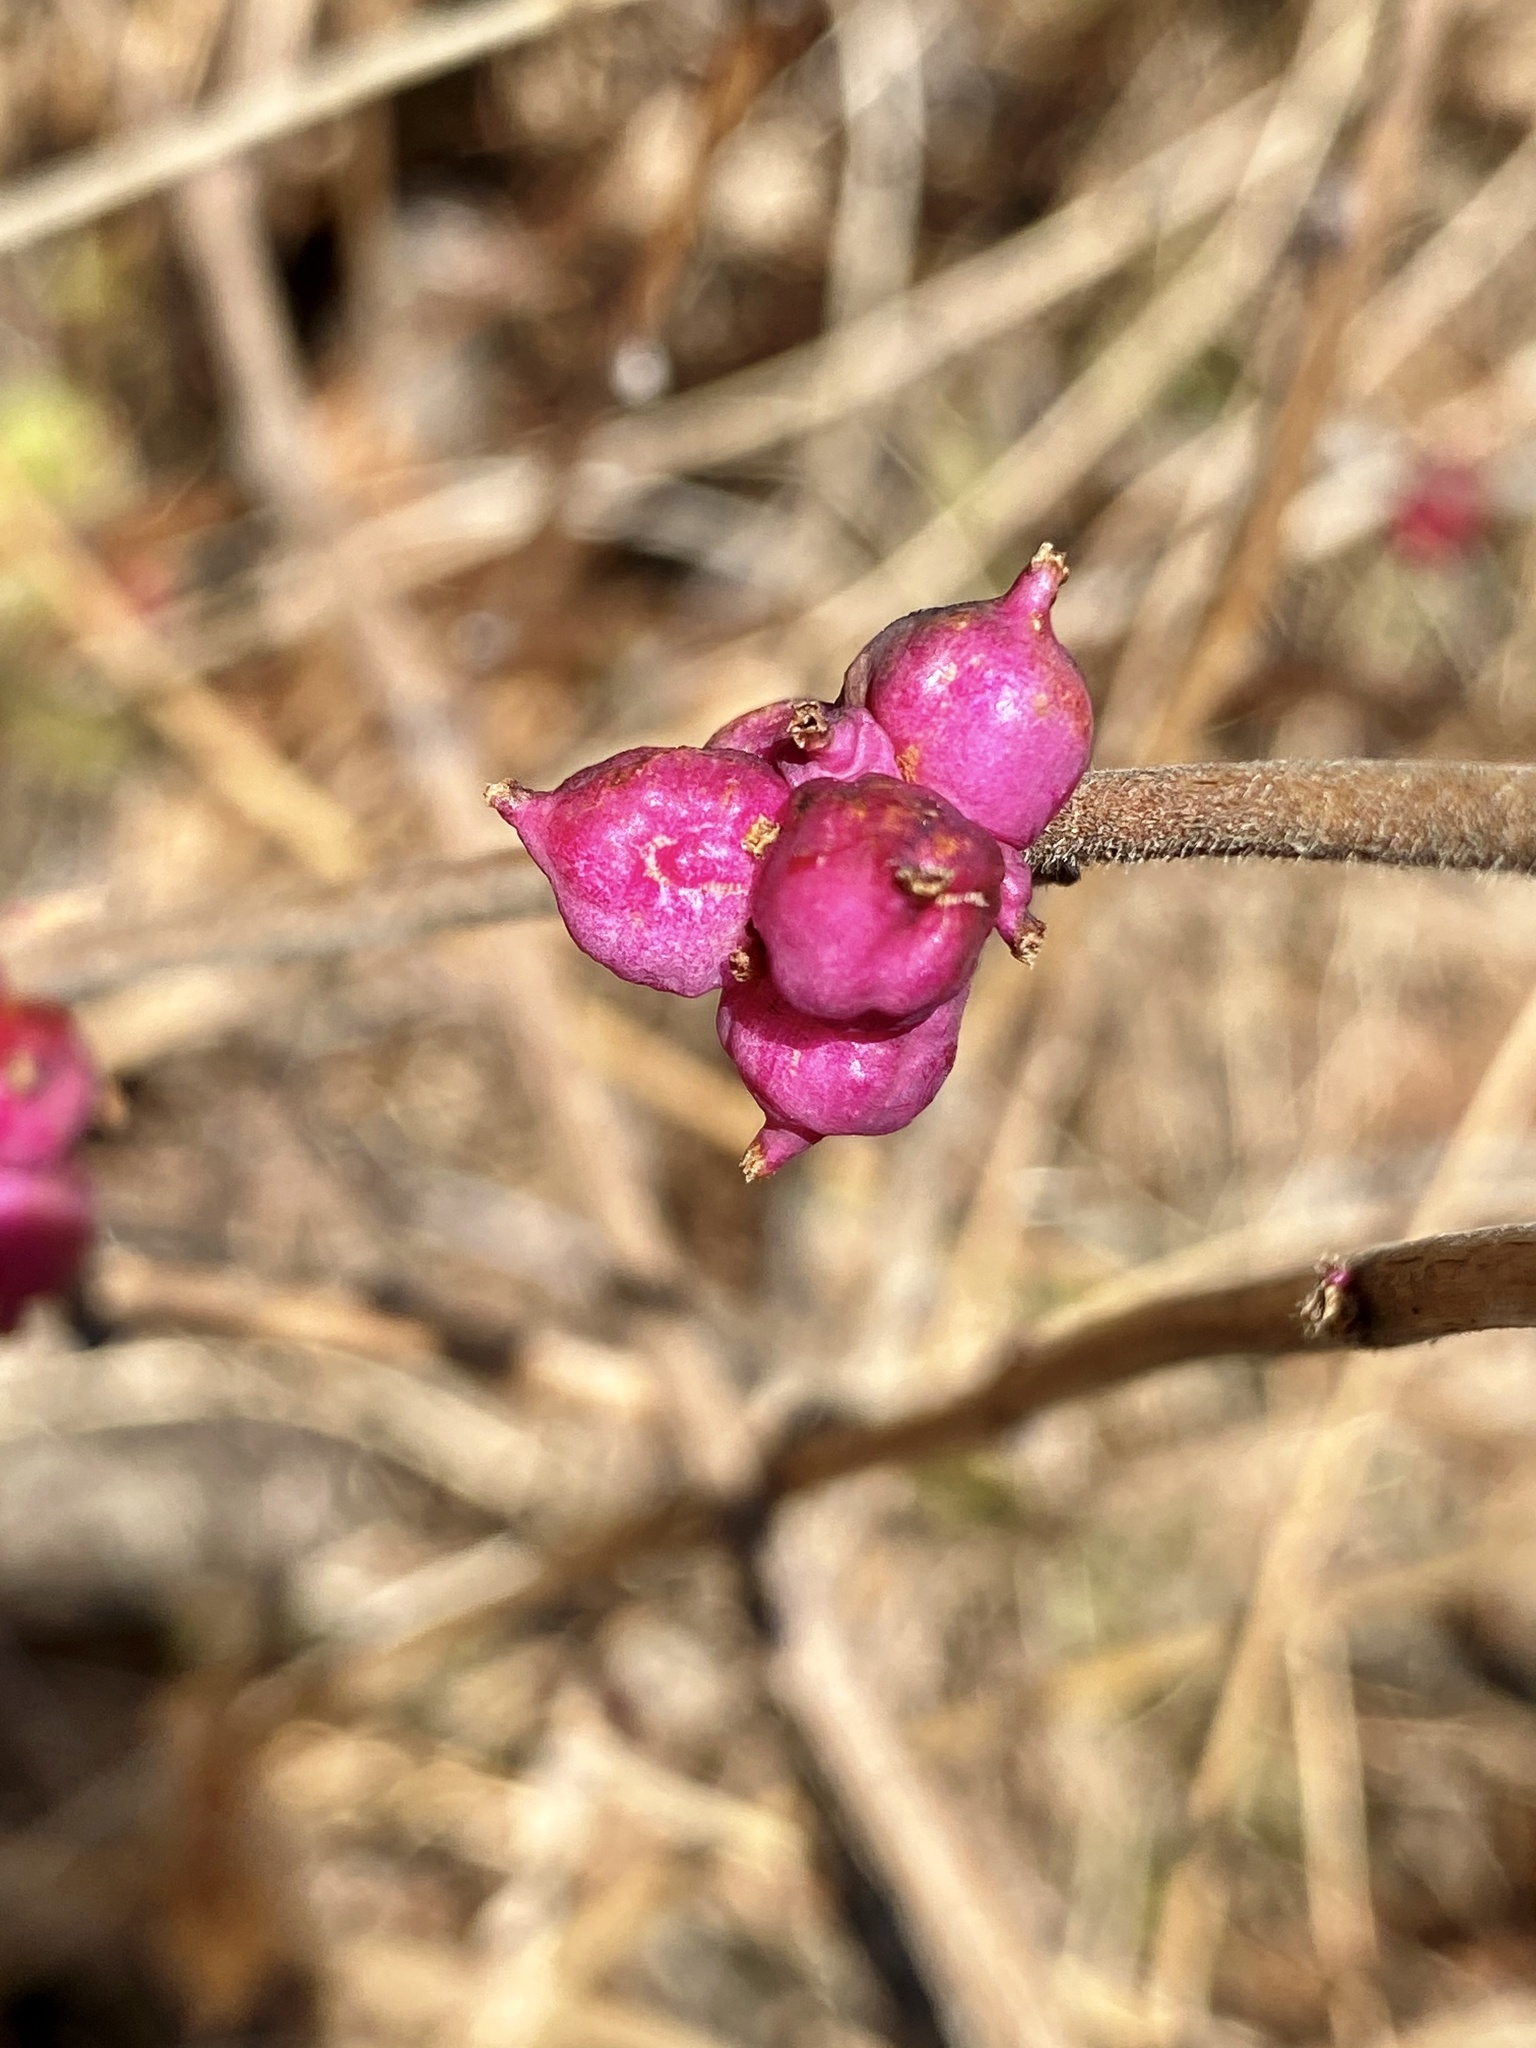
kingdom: Plantae
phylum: Tracheophyta
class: Magnoliopsida
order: Dipsacales
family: Caprifoliaceae
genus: Symphoricarpos
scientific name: Symphoricarpos orbiculatus
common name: Coralberry
